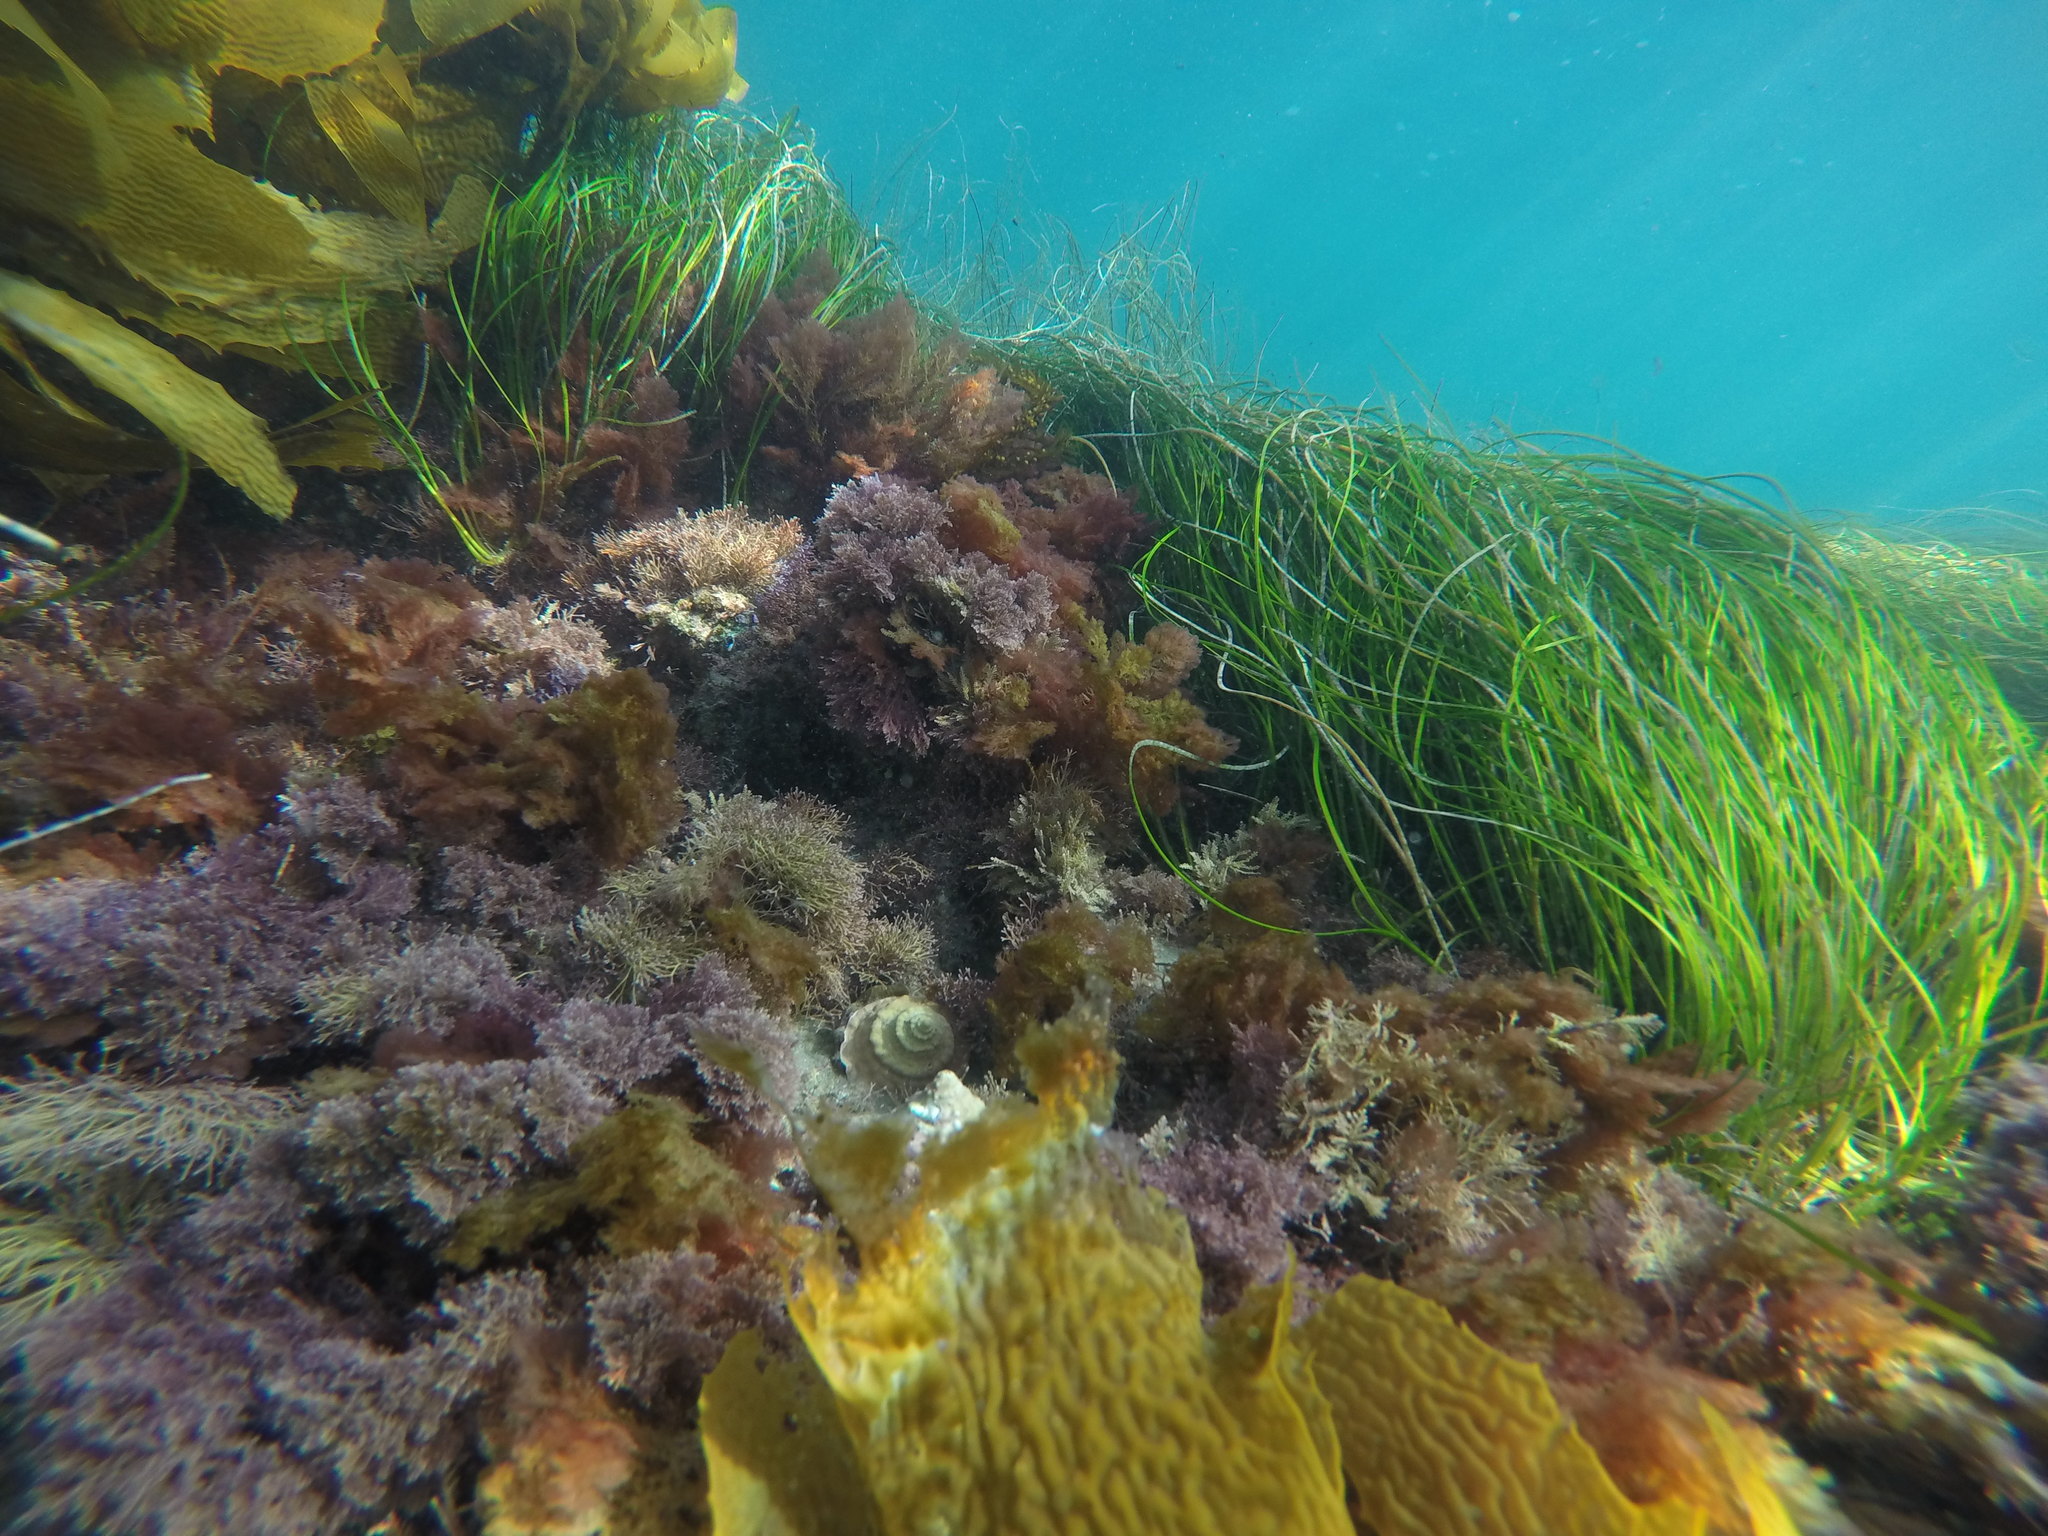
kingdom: Animalia
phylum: Mollusca
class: Gastropoda
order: Trochida
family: Turbinidae
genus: Megastraea
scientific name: Megastraea undosa
